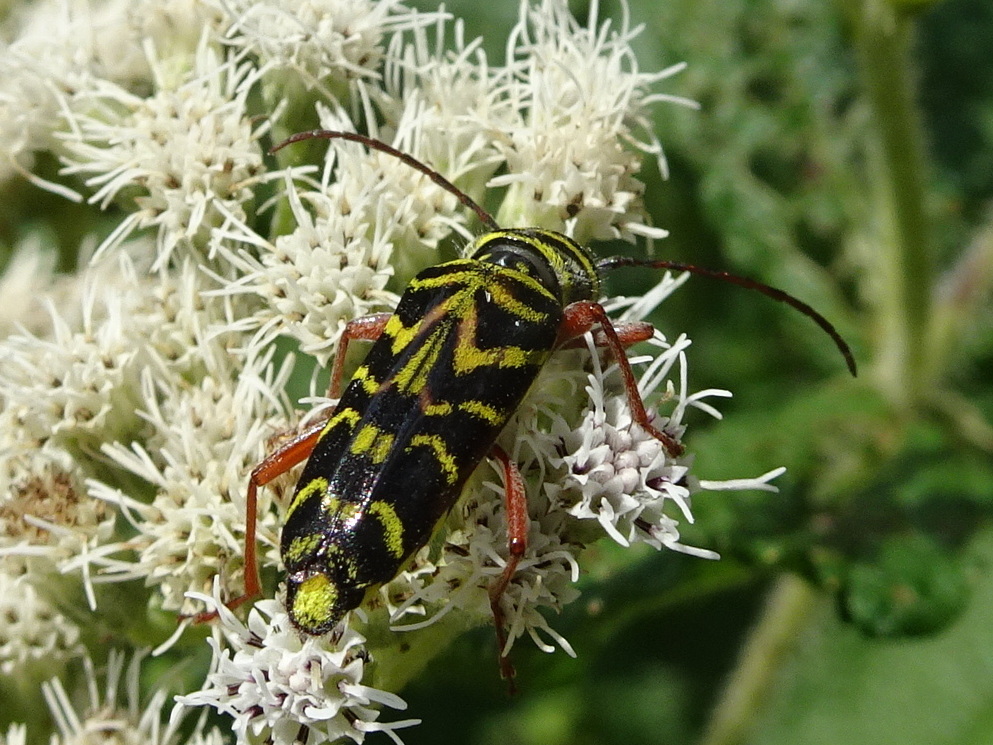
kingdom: Animalia
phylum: Arthropoda
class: Insecta
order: Coleoptera
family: Cerambycidae
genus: Megacyllene
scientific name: Megacyllene robiniae
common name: Locust borer
